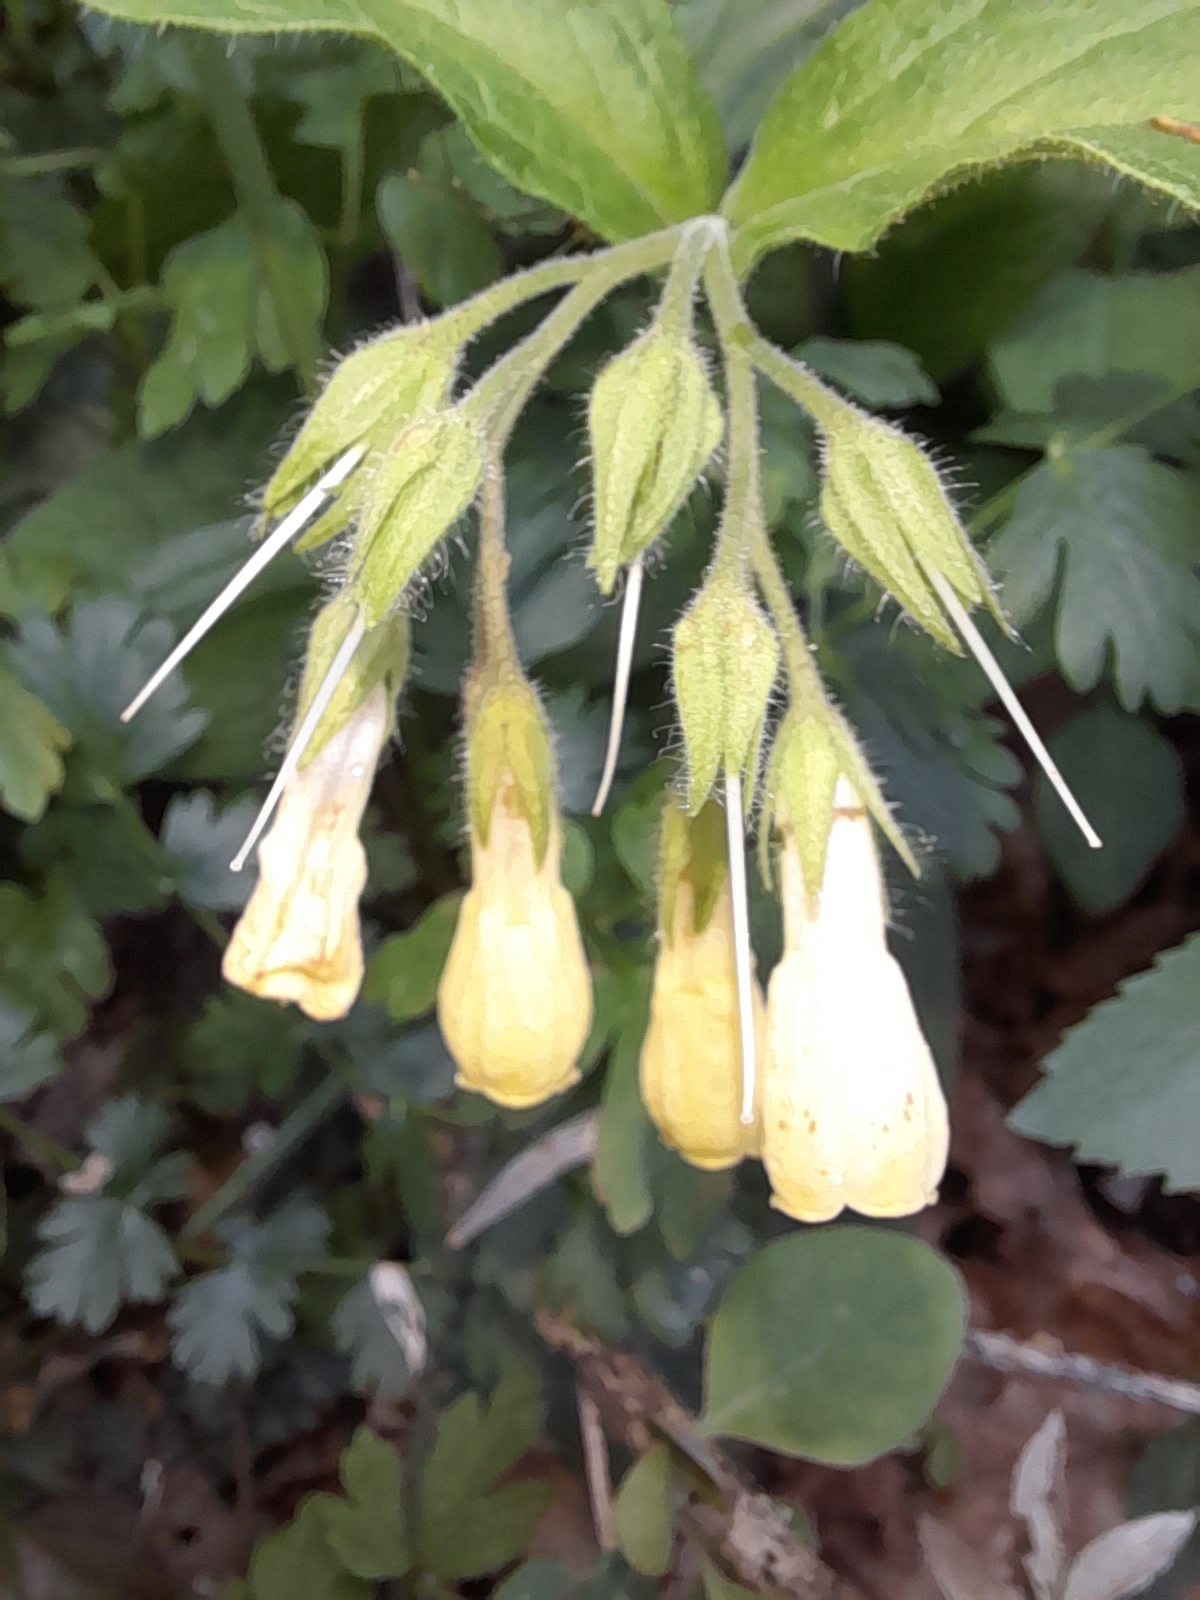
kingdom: Plantae
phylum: Tracheophyta
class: Magnoliopsida
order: Boraginales
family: Boraginaceae
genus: Symphytum
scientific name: Symphytum tuberosum
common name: Tuberous comfrey
